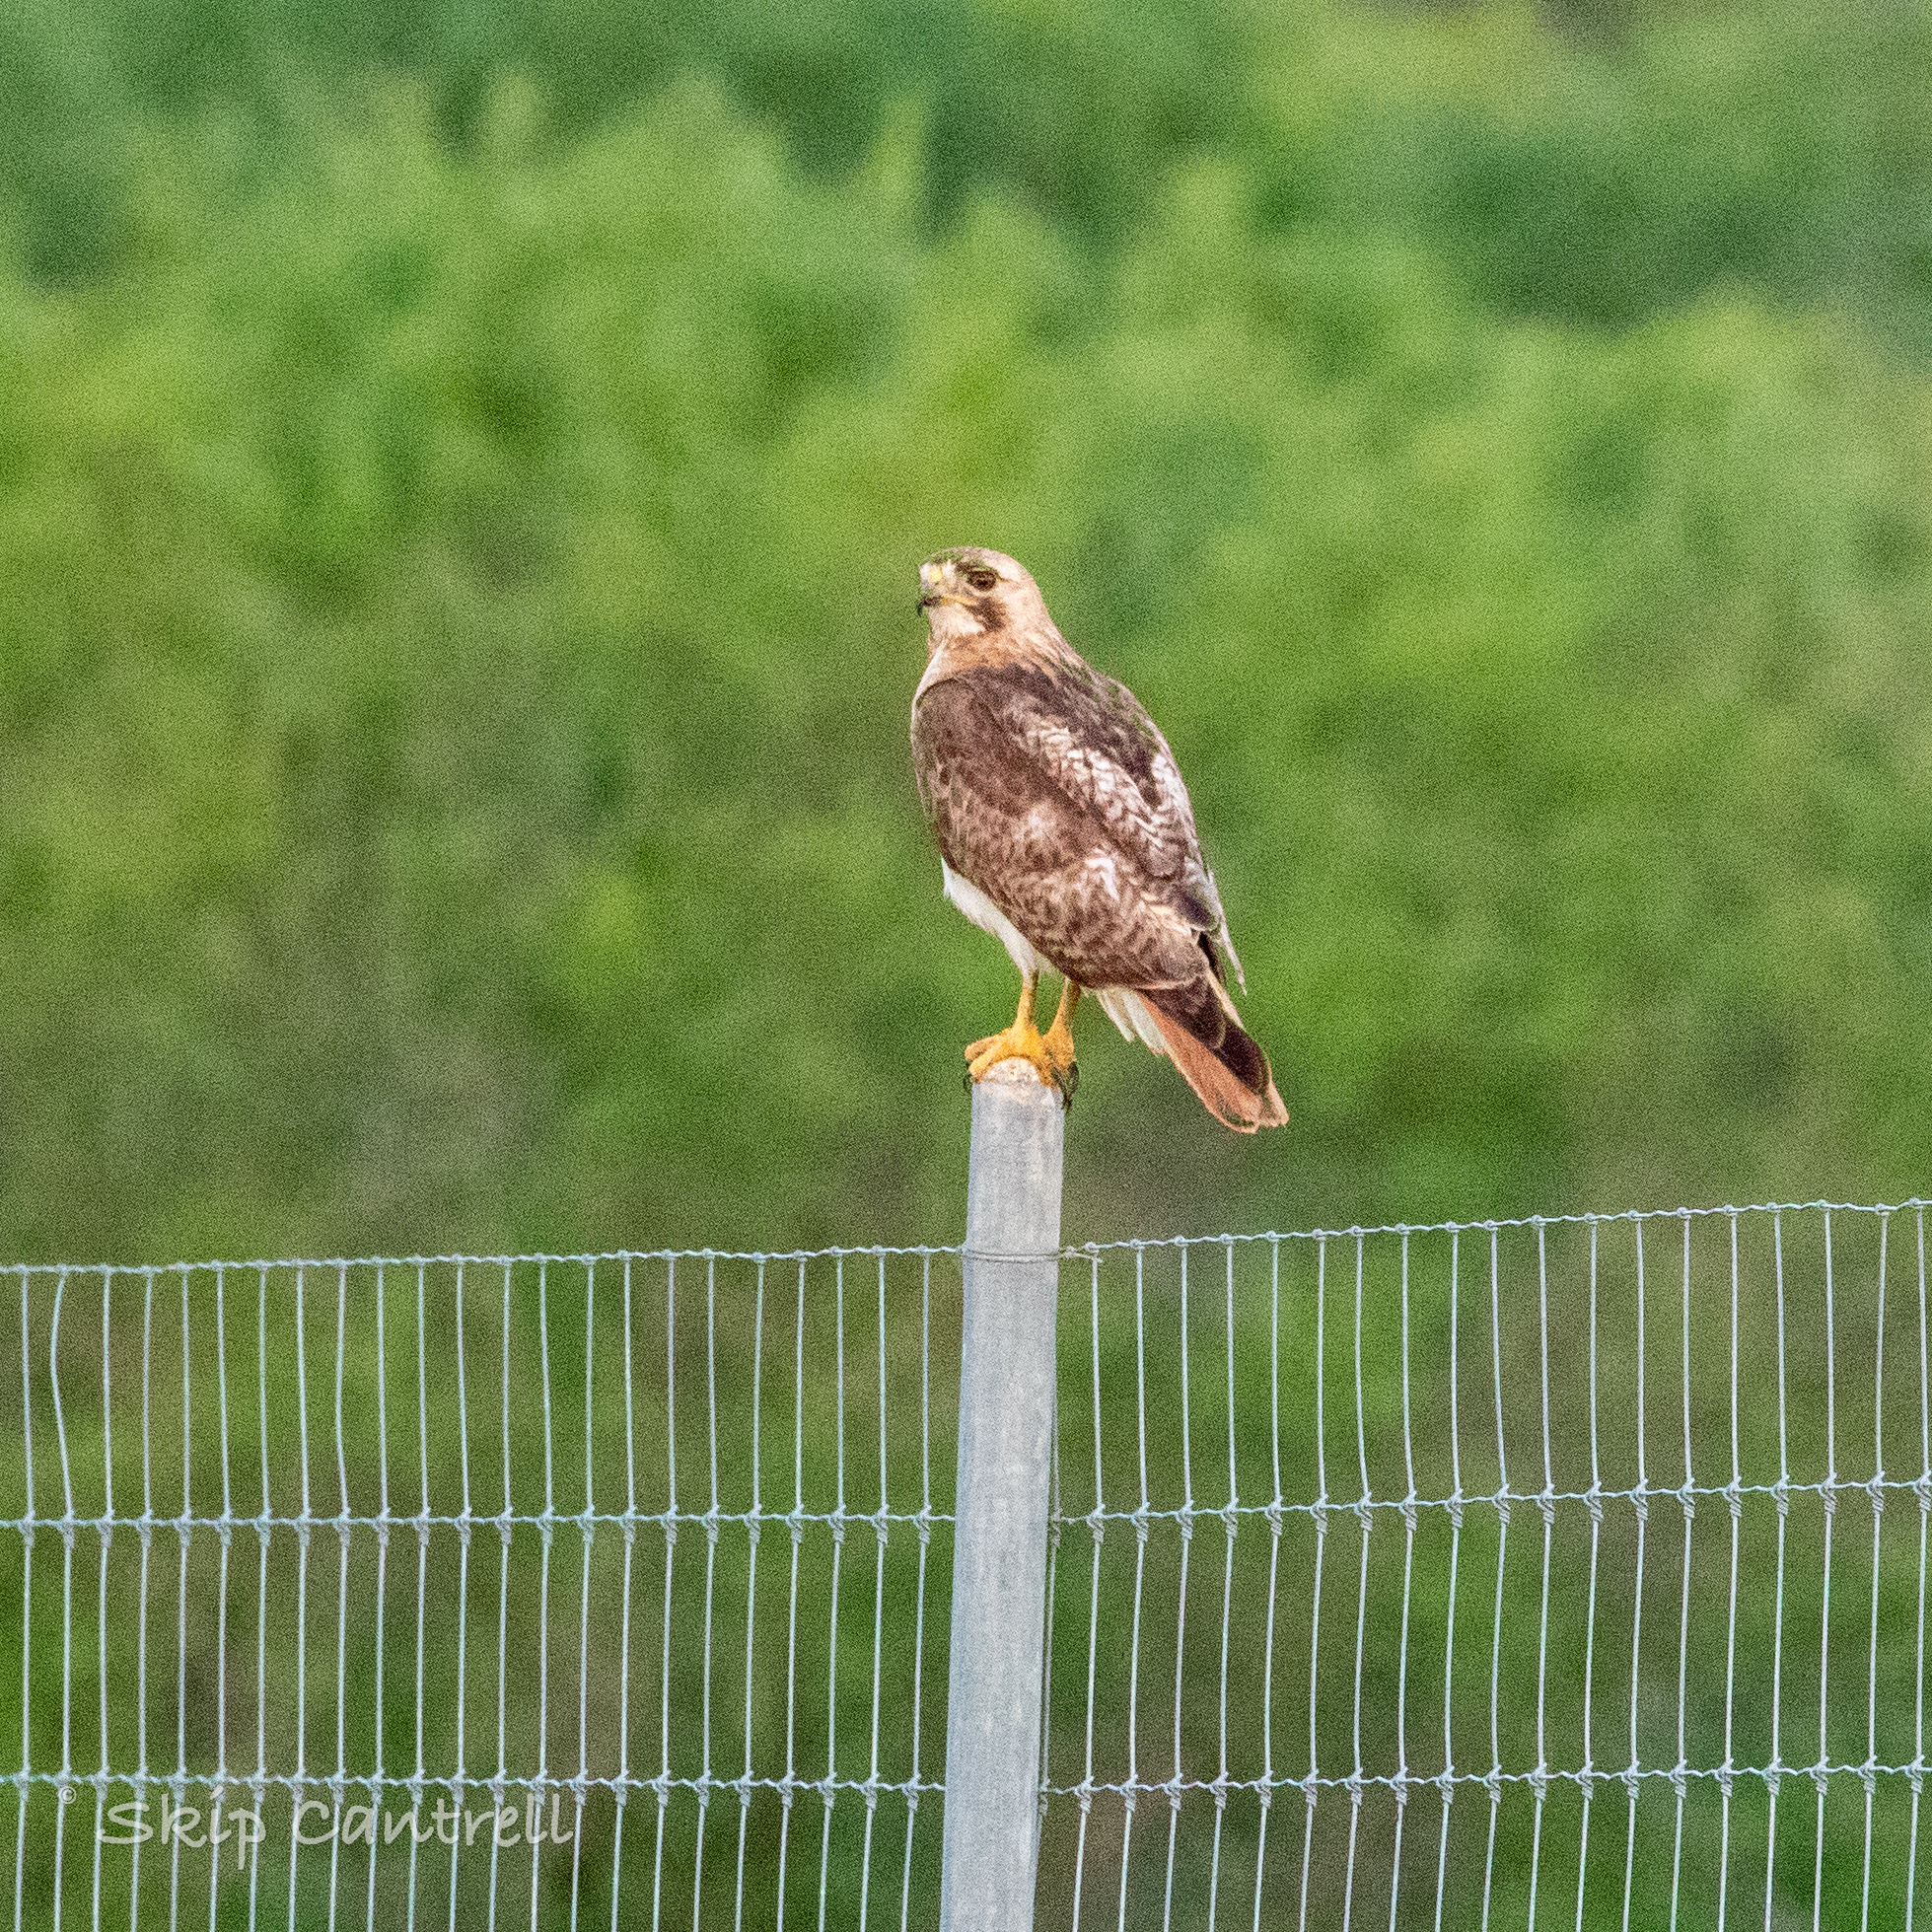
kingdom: Animalia
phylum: Chordata
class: Aves
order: Accipitriformes
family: Accipitridae
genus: Buteo
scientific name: Buteo jamaicensis
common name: Red-tailed hawk
